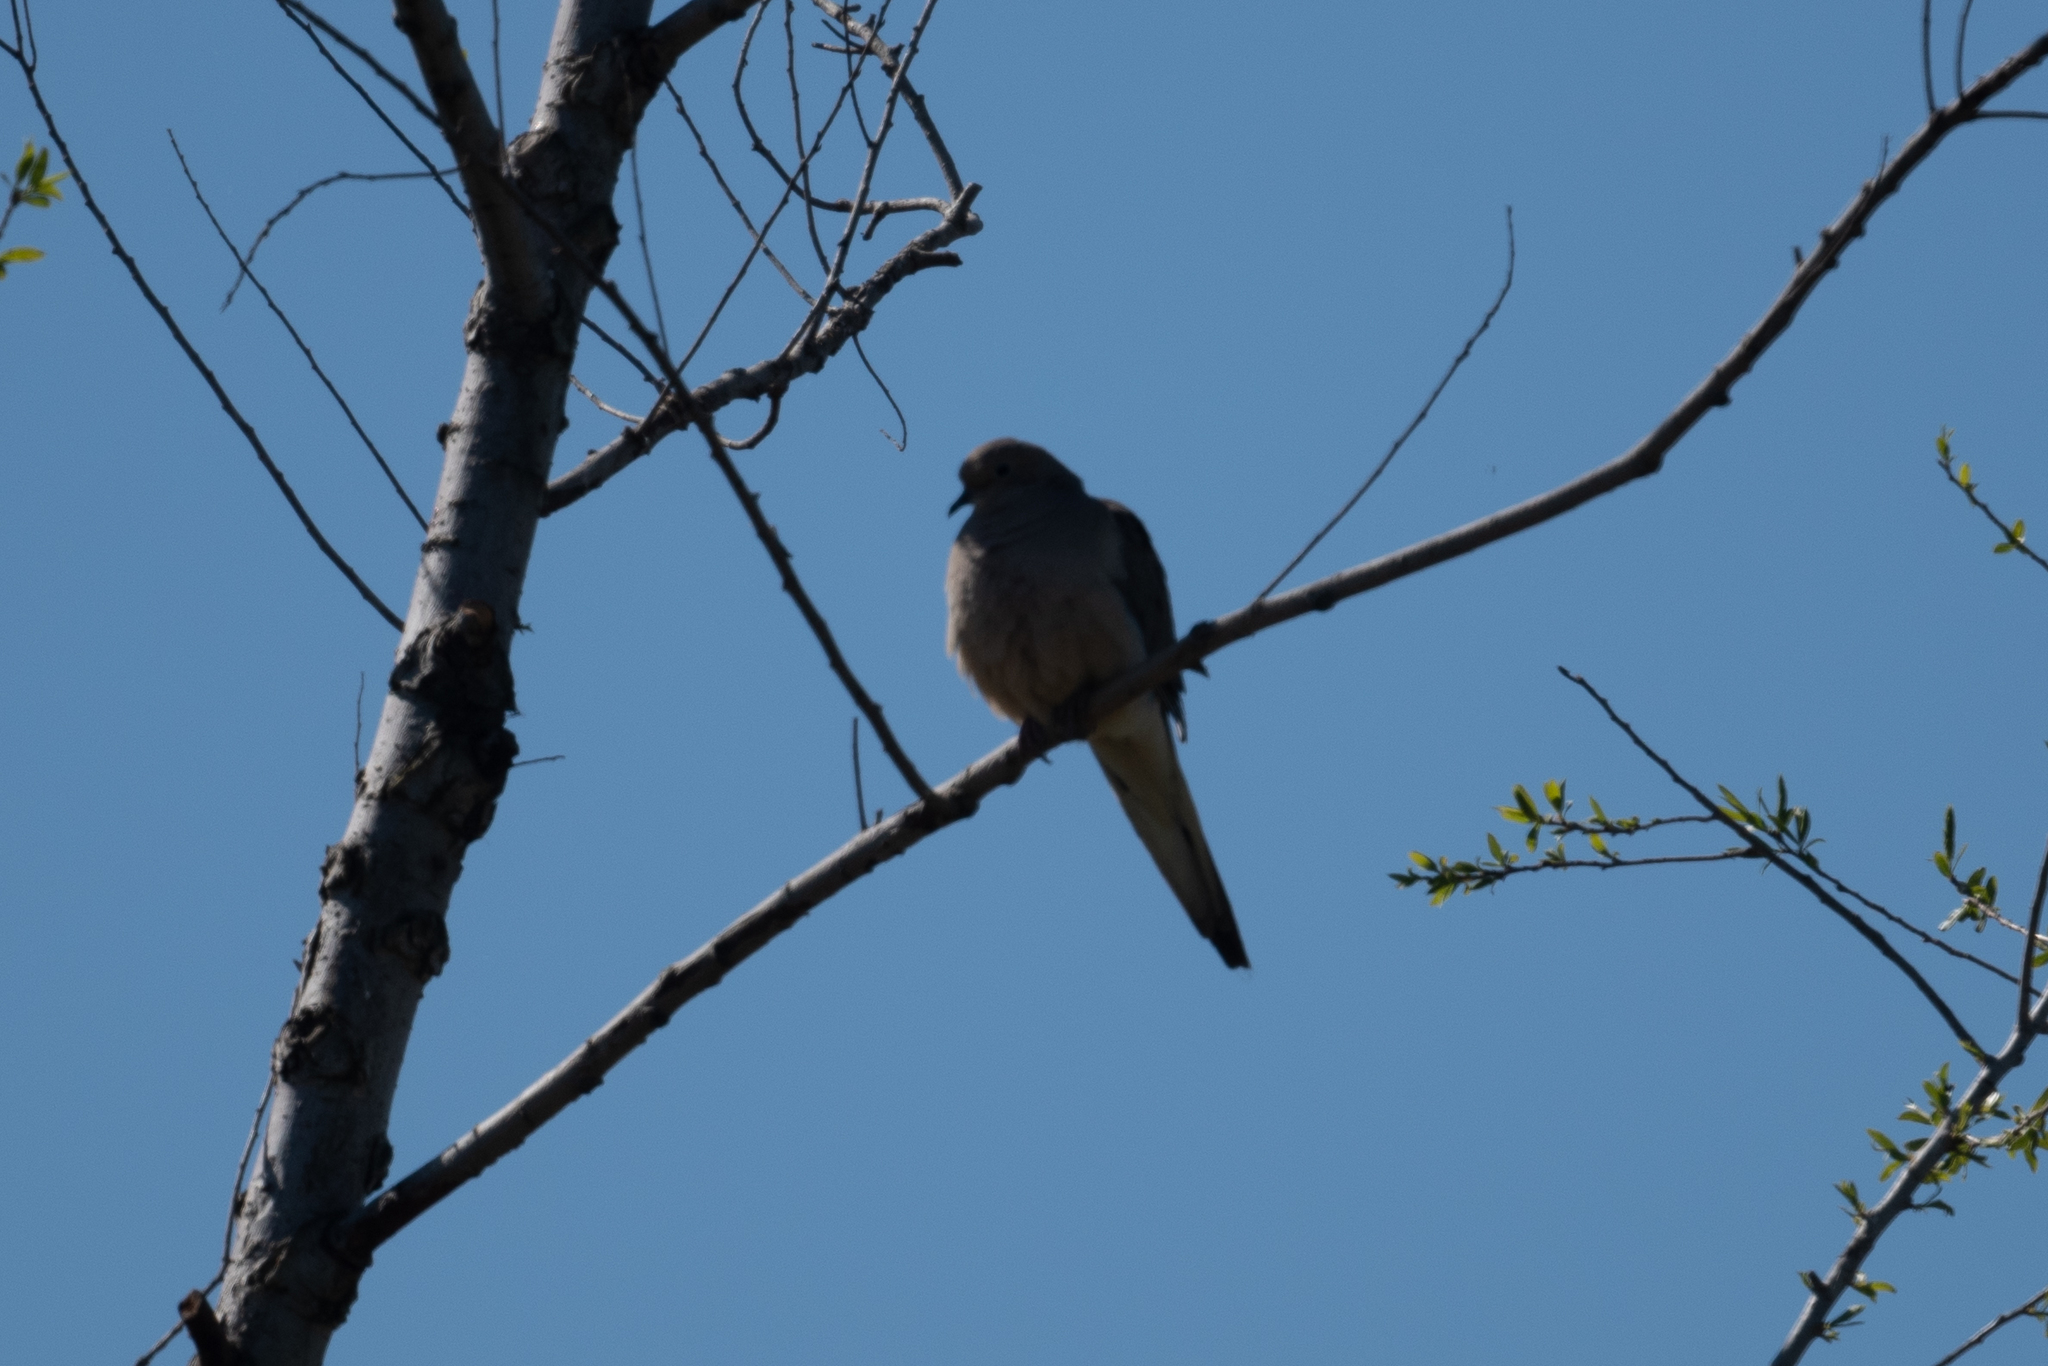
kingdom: Animalia
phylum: Chordata
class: Aves
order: Columbiformes
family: Columbidae
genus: Zenaida
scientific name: Zenaida macroura
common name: Mourning dove
